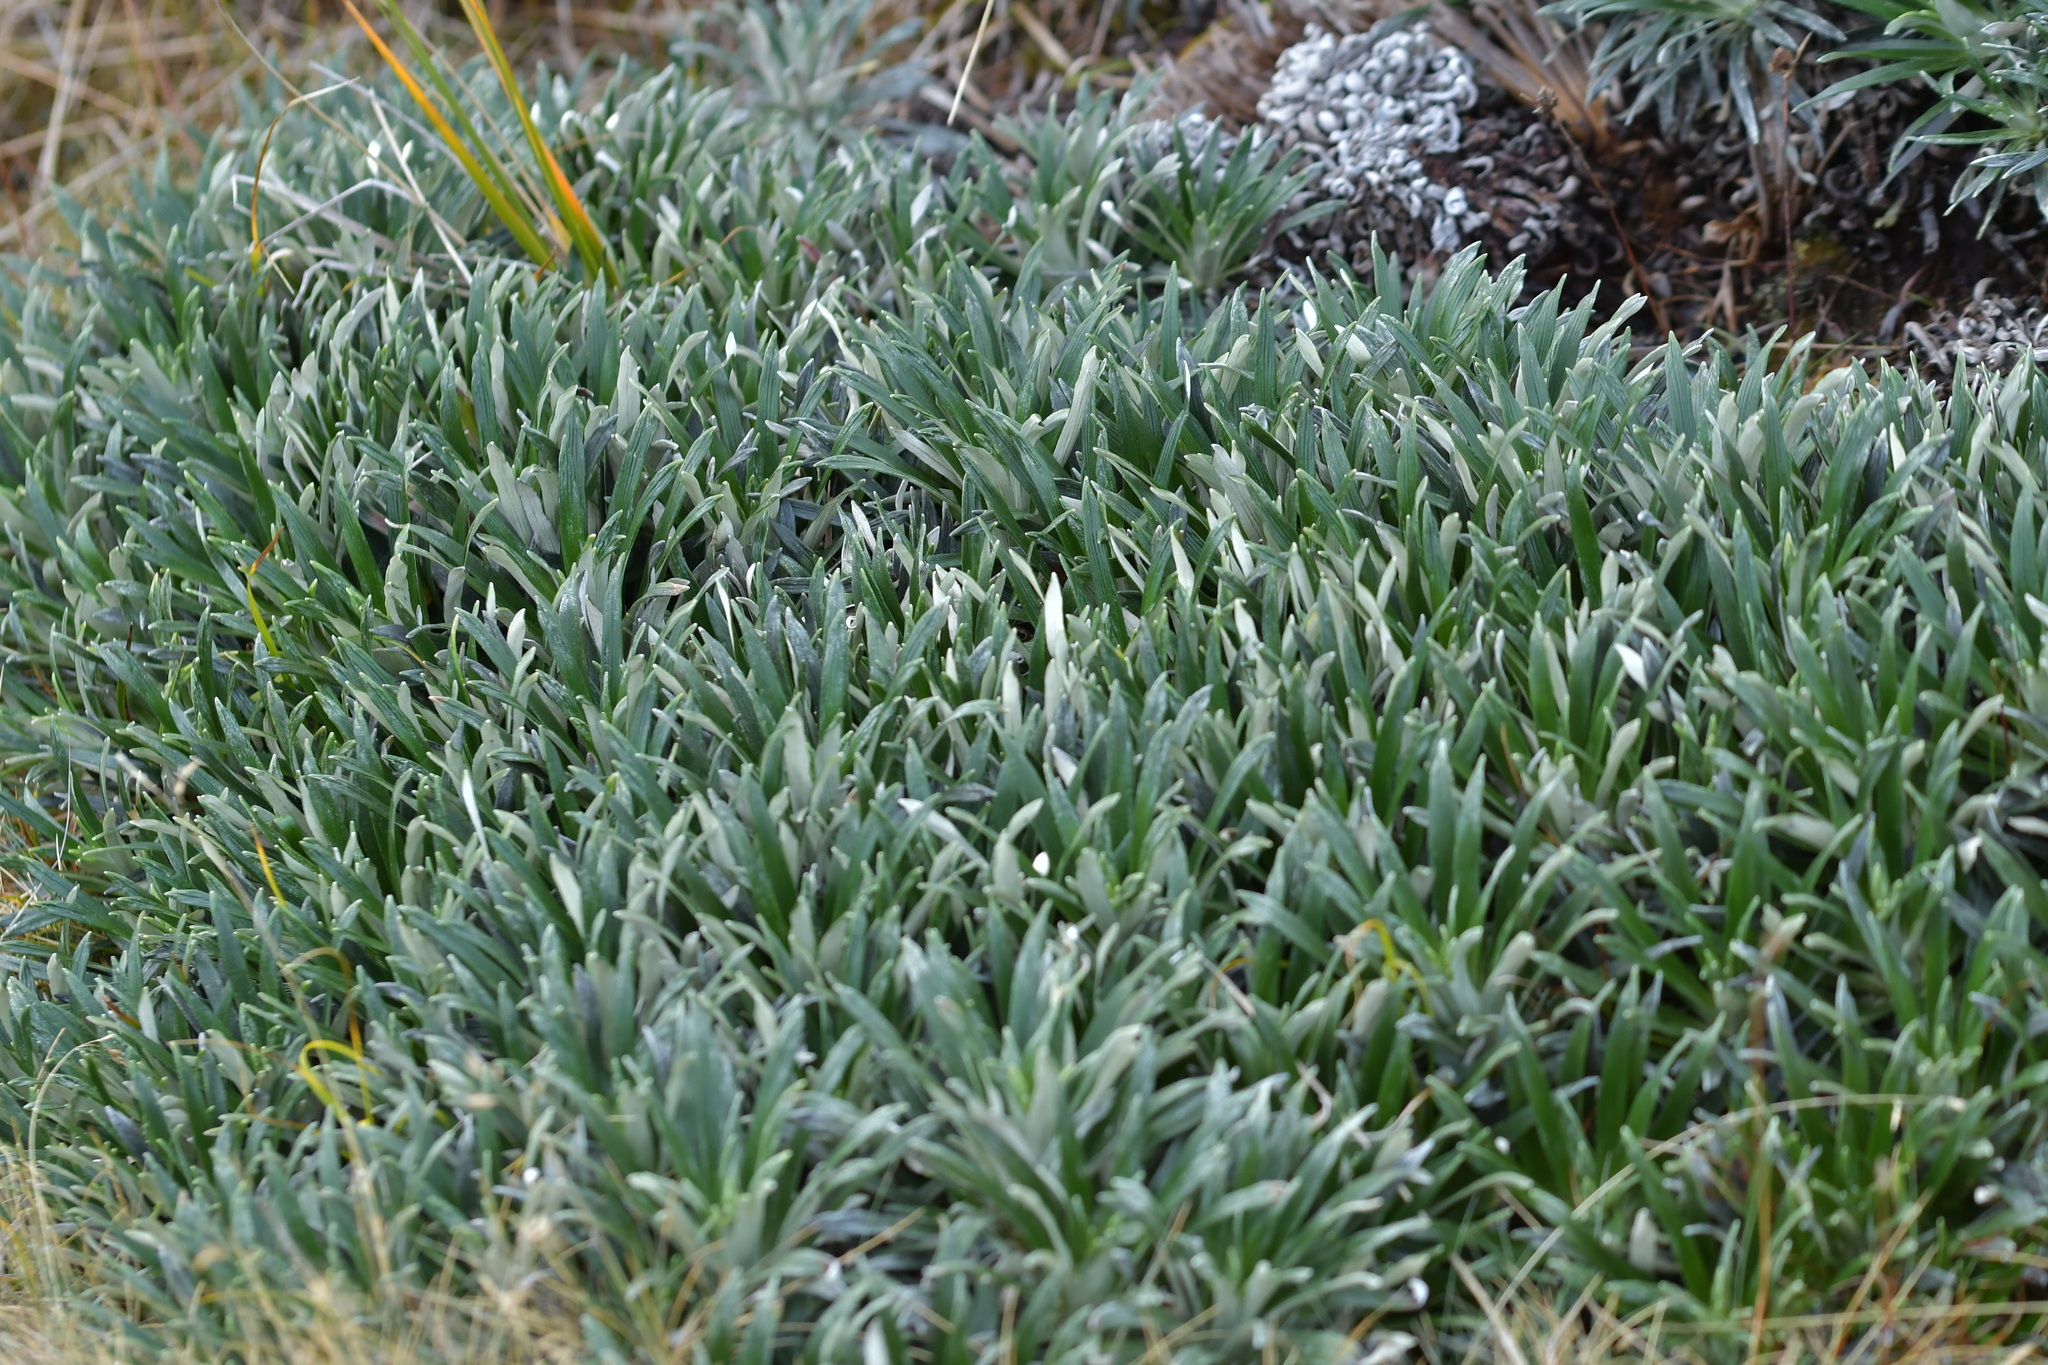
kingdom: Plantae
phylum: Tracheophyta
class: Magnoliopsida
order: Asterales
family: Asteraceae
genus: Celmisia
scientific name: Celmisia viscosa
